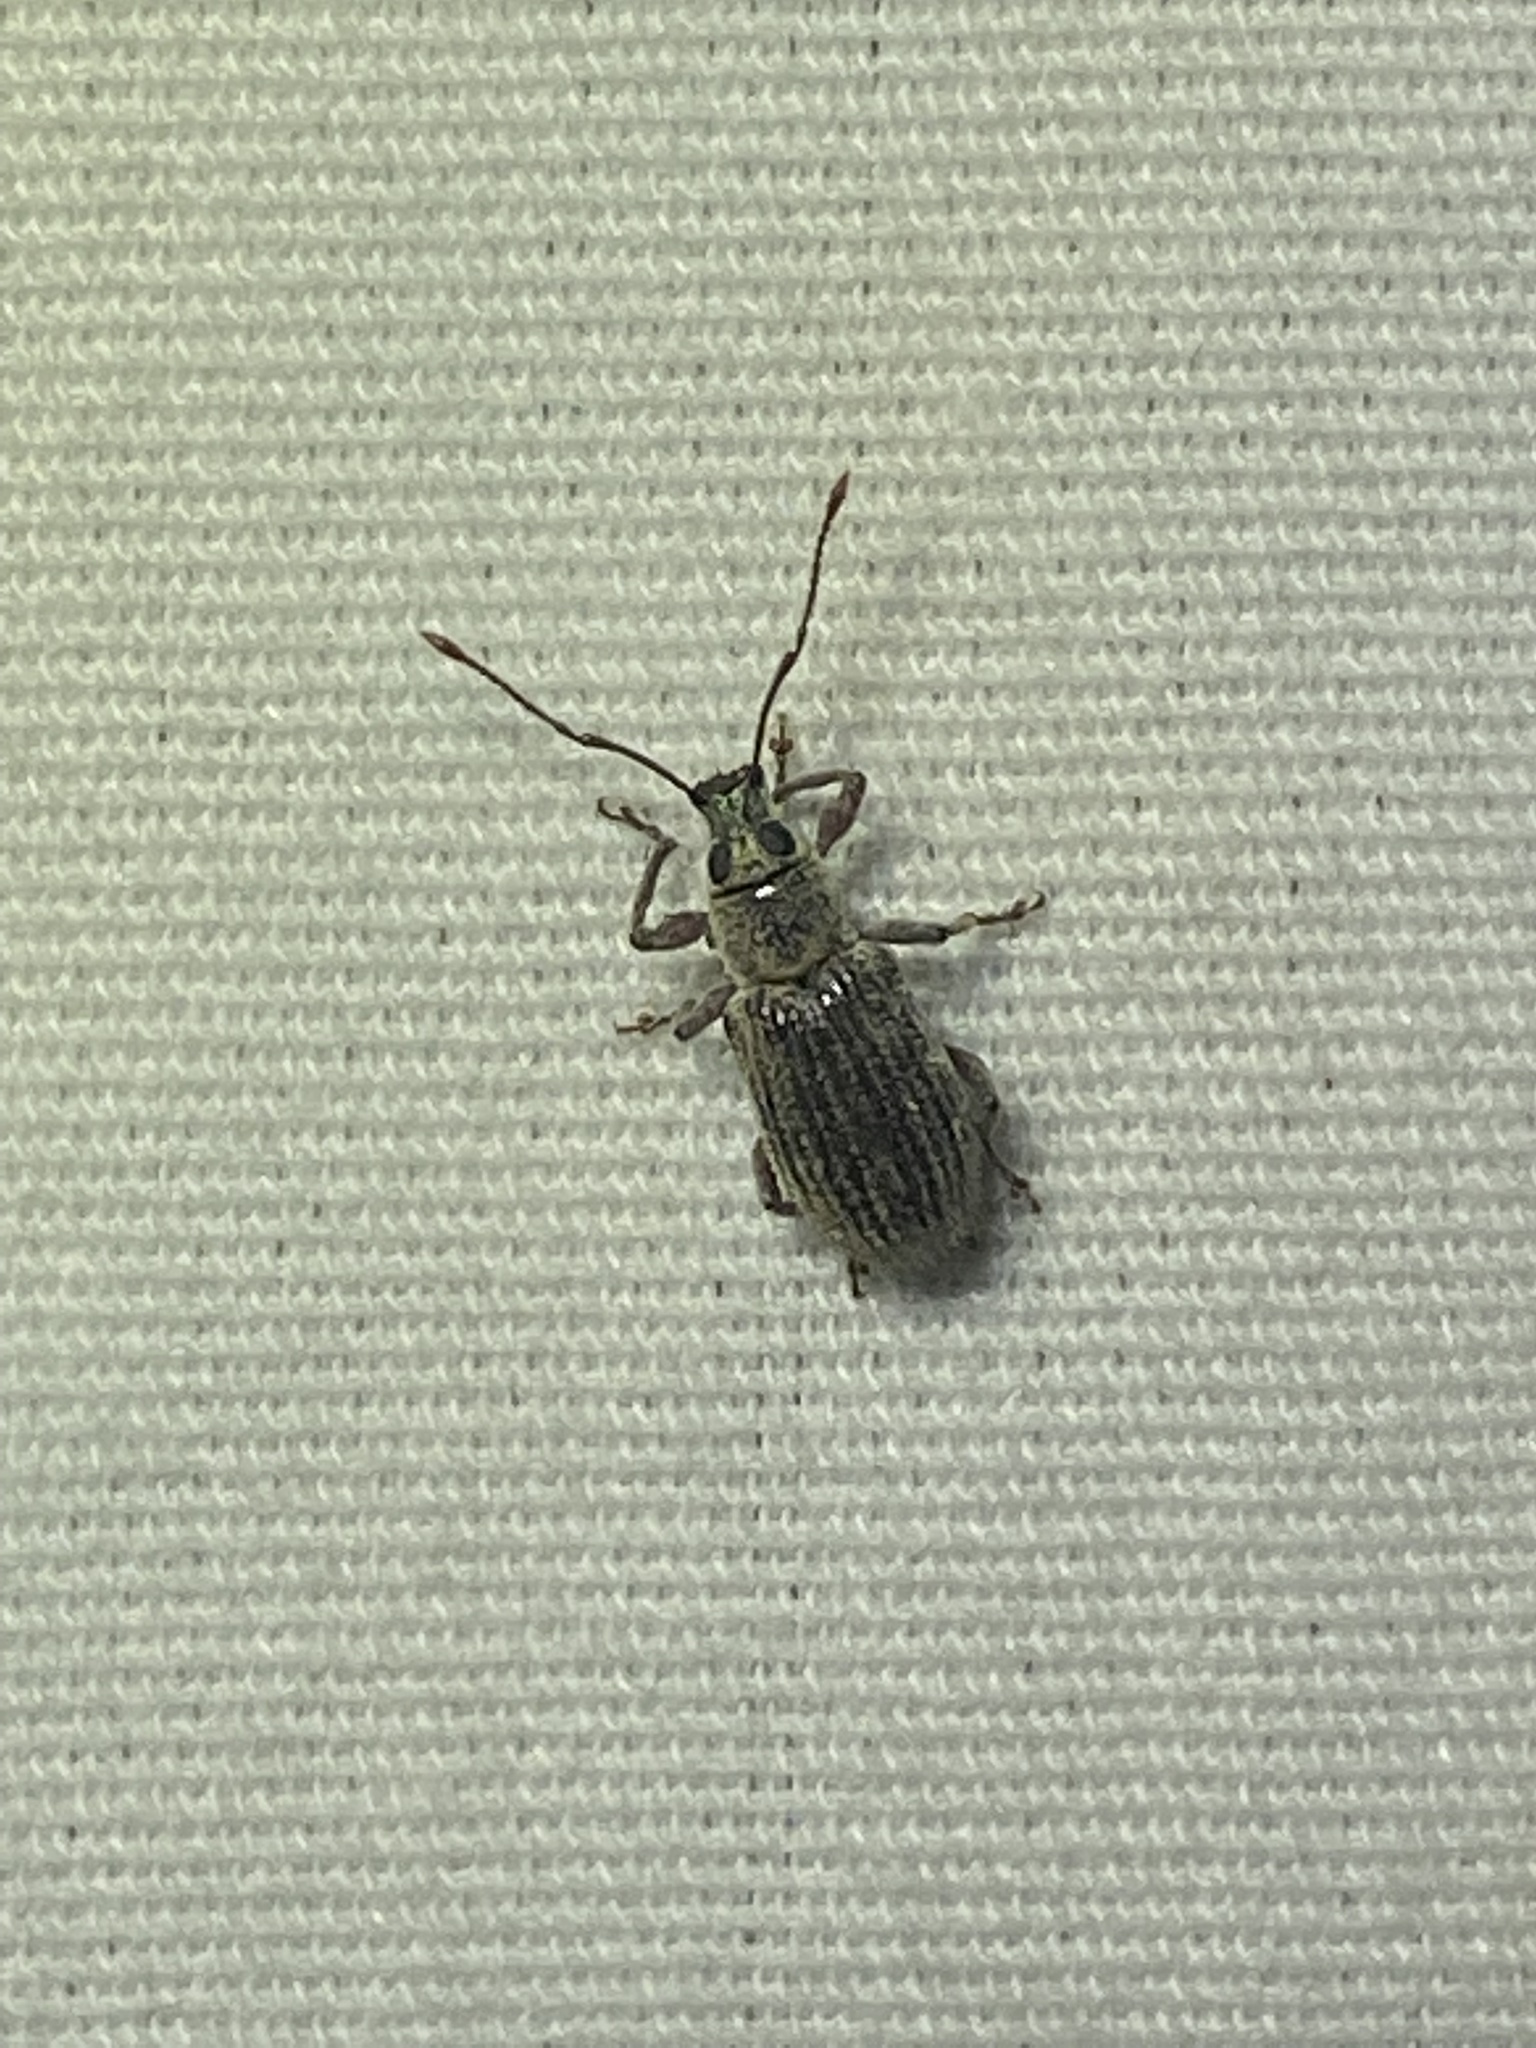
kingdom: Animalia
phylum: Arthropoda
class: Insecta
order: Coleoptera
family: Curculionidae
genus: Cyrtepistomus
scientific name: Cyrtepistomus castaneus
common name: Weevil
